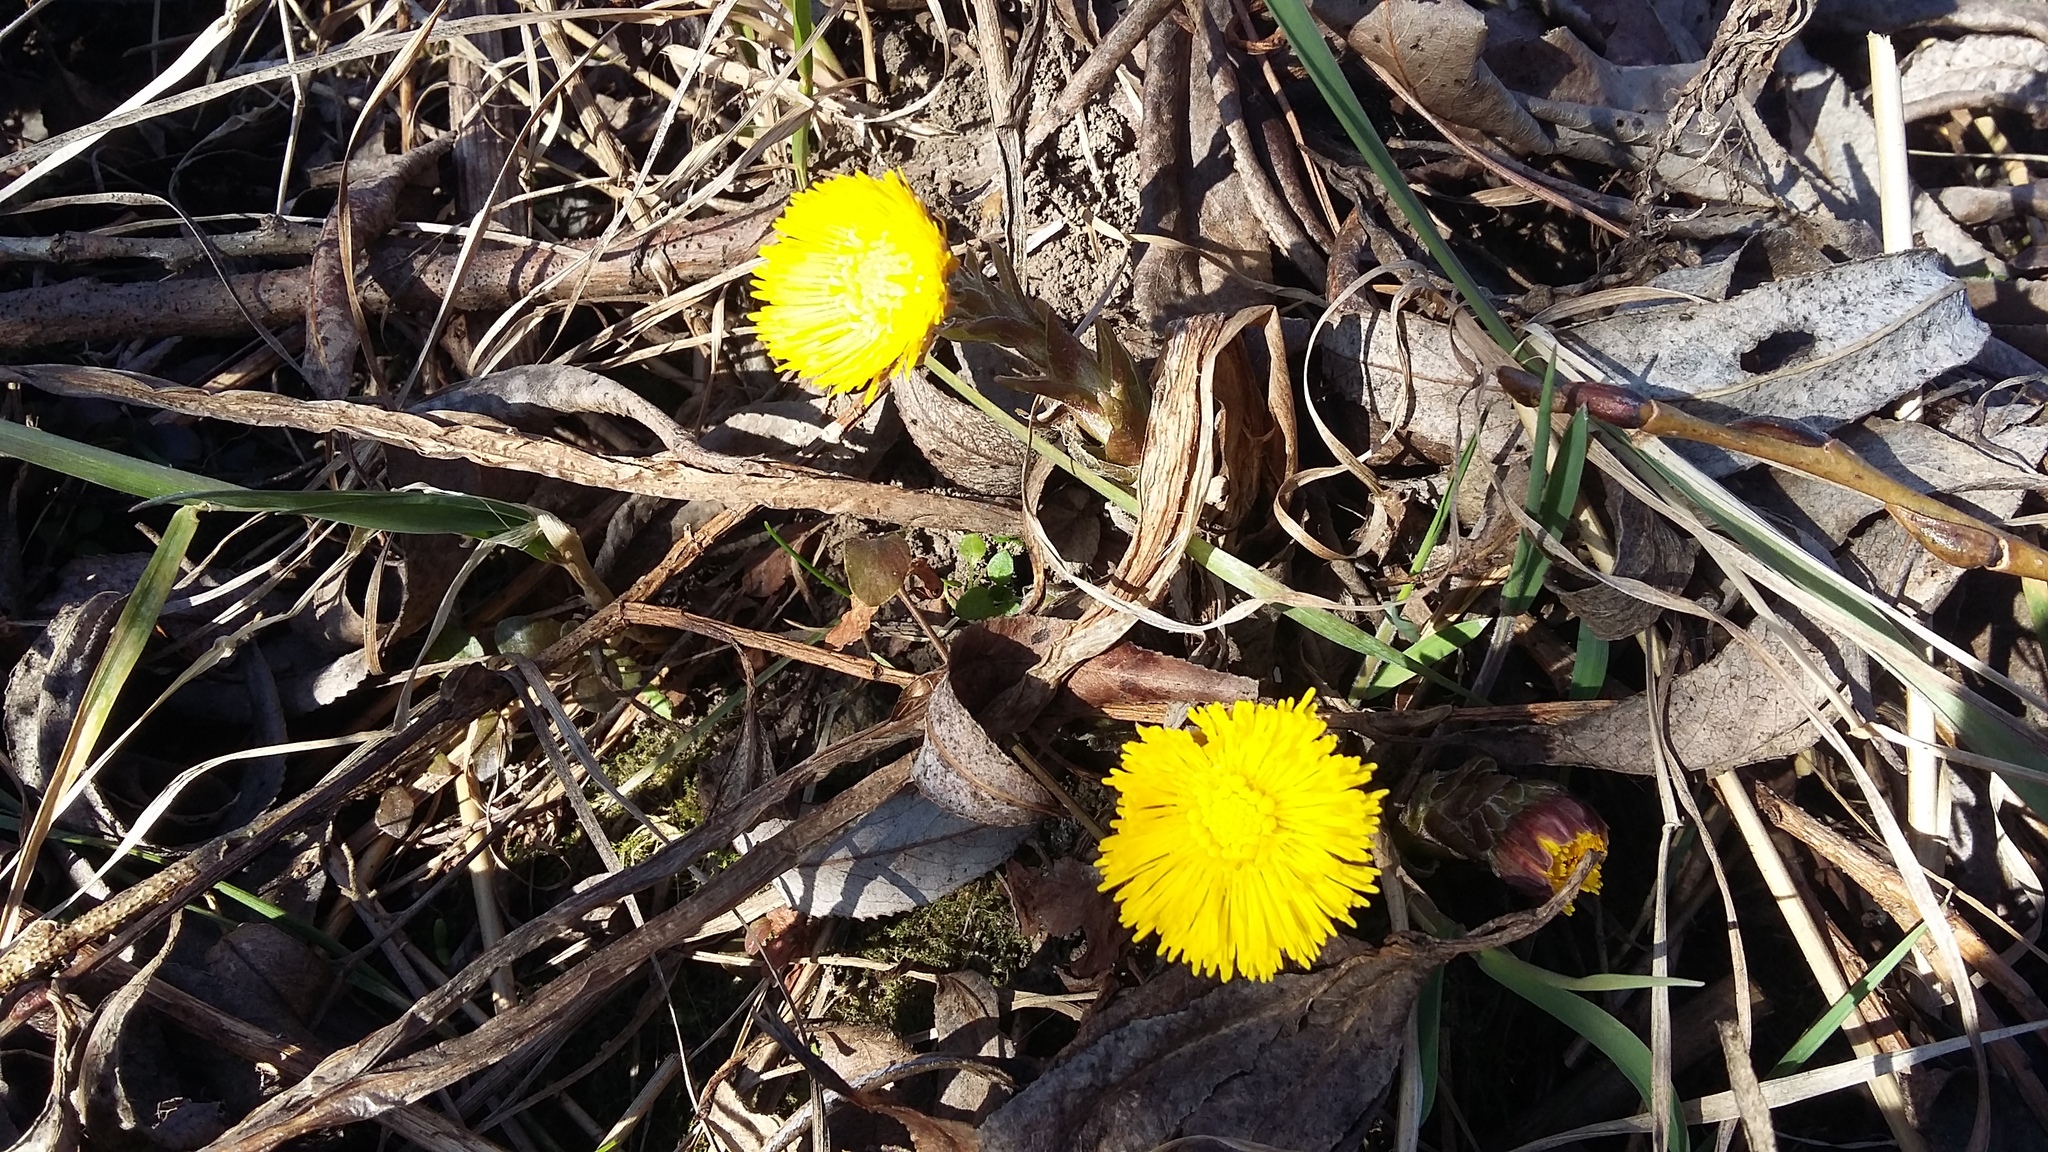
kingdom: Plantae
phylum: Tracheophyta
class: Magnoliopsida
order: Asterales
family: Asteraceae
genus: Tussilago
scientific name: Tussilago farfara
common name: Coltsfoot
